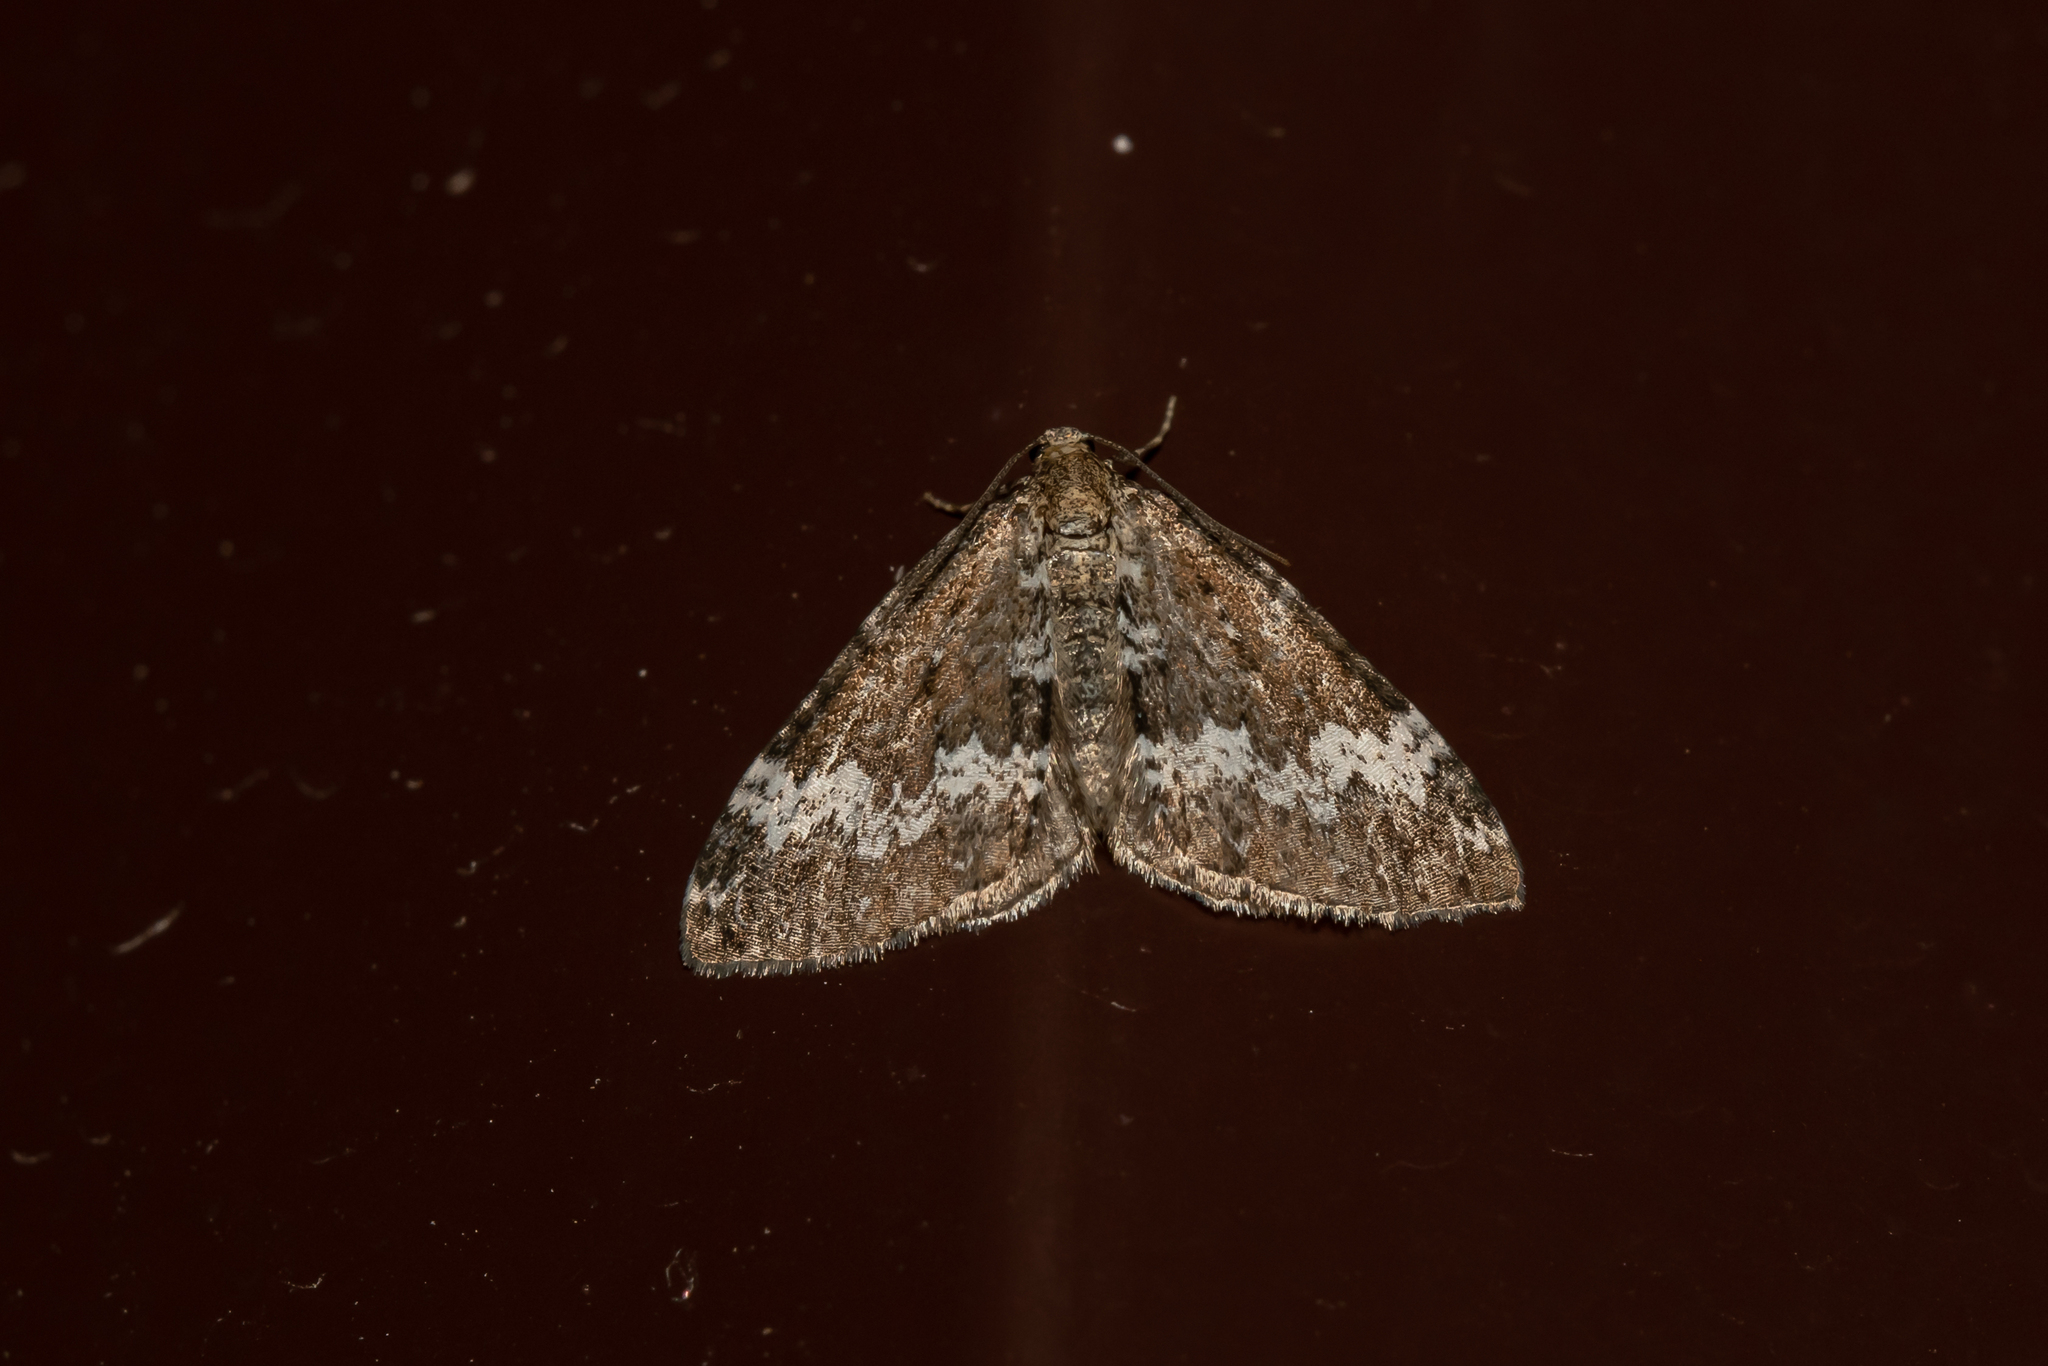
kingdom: Animalia
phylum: Arthropoda
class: Insecta
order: Lepidoptera
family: Geometridae
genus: Perizoma
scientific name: Perizoma alchemillata
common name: Small rivulet
